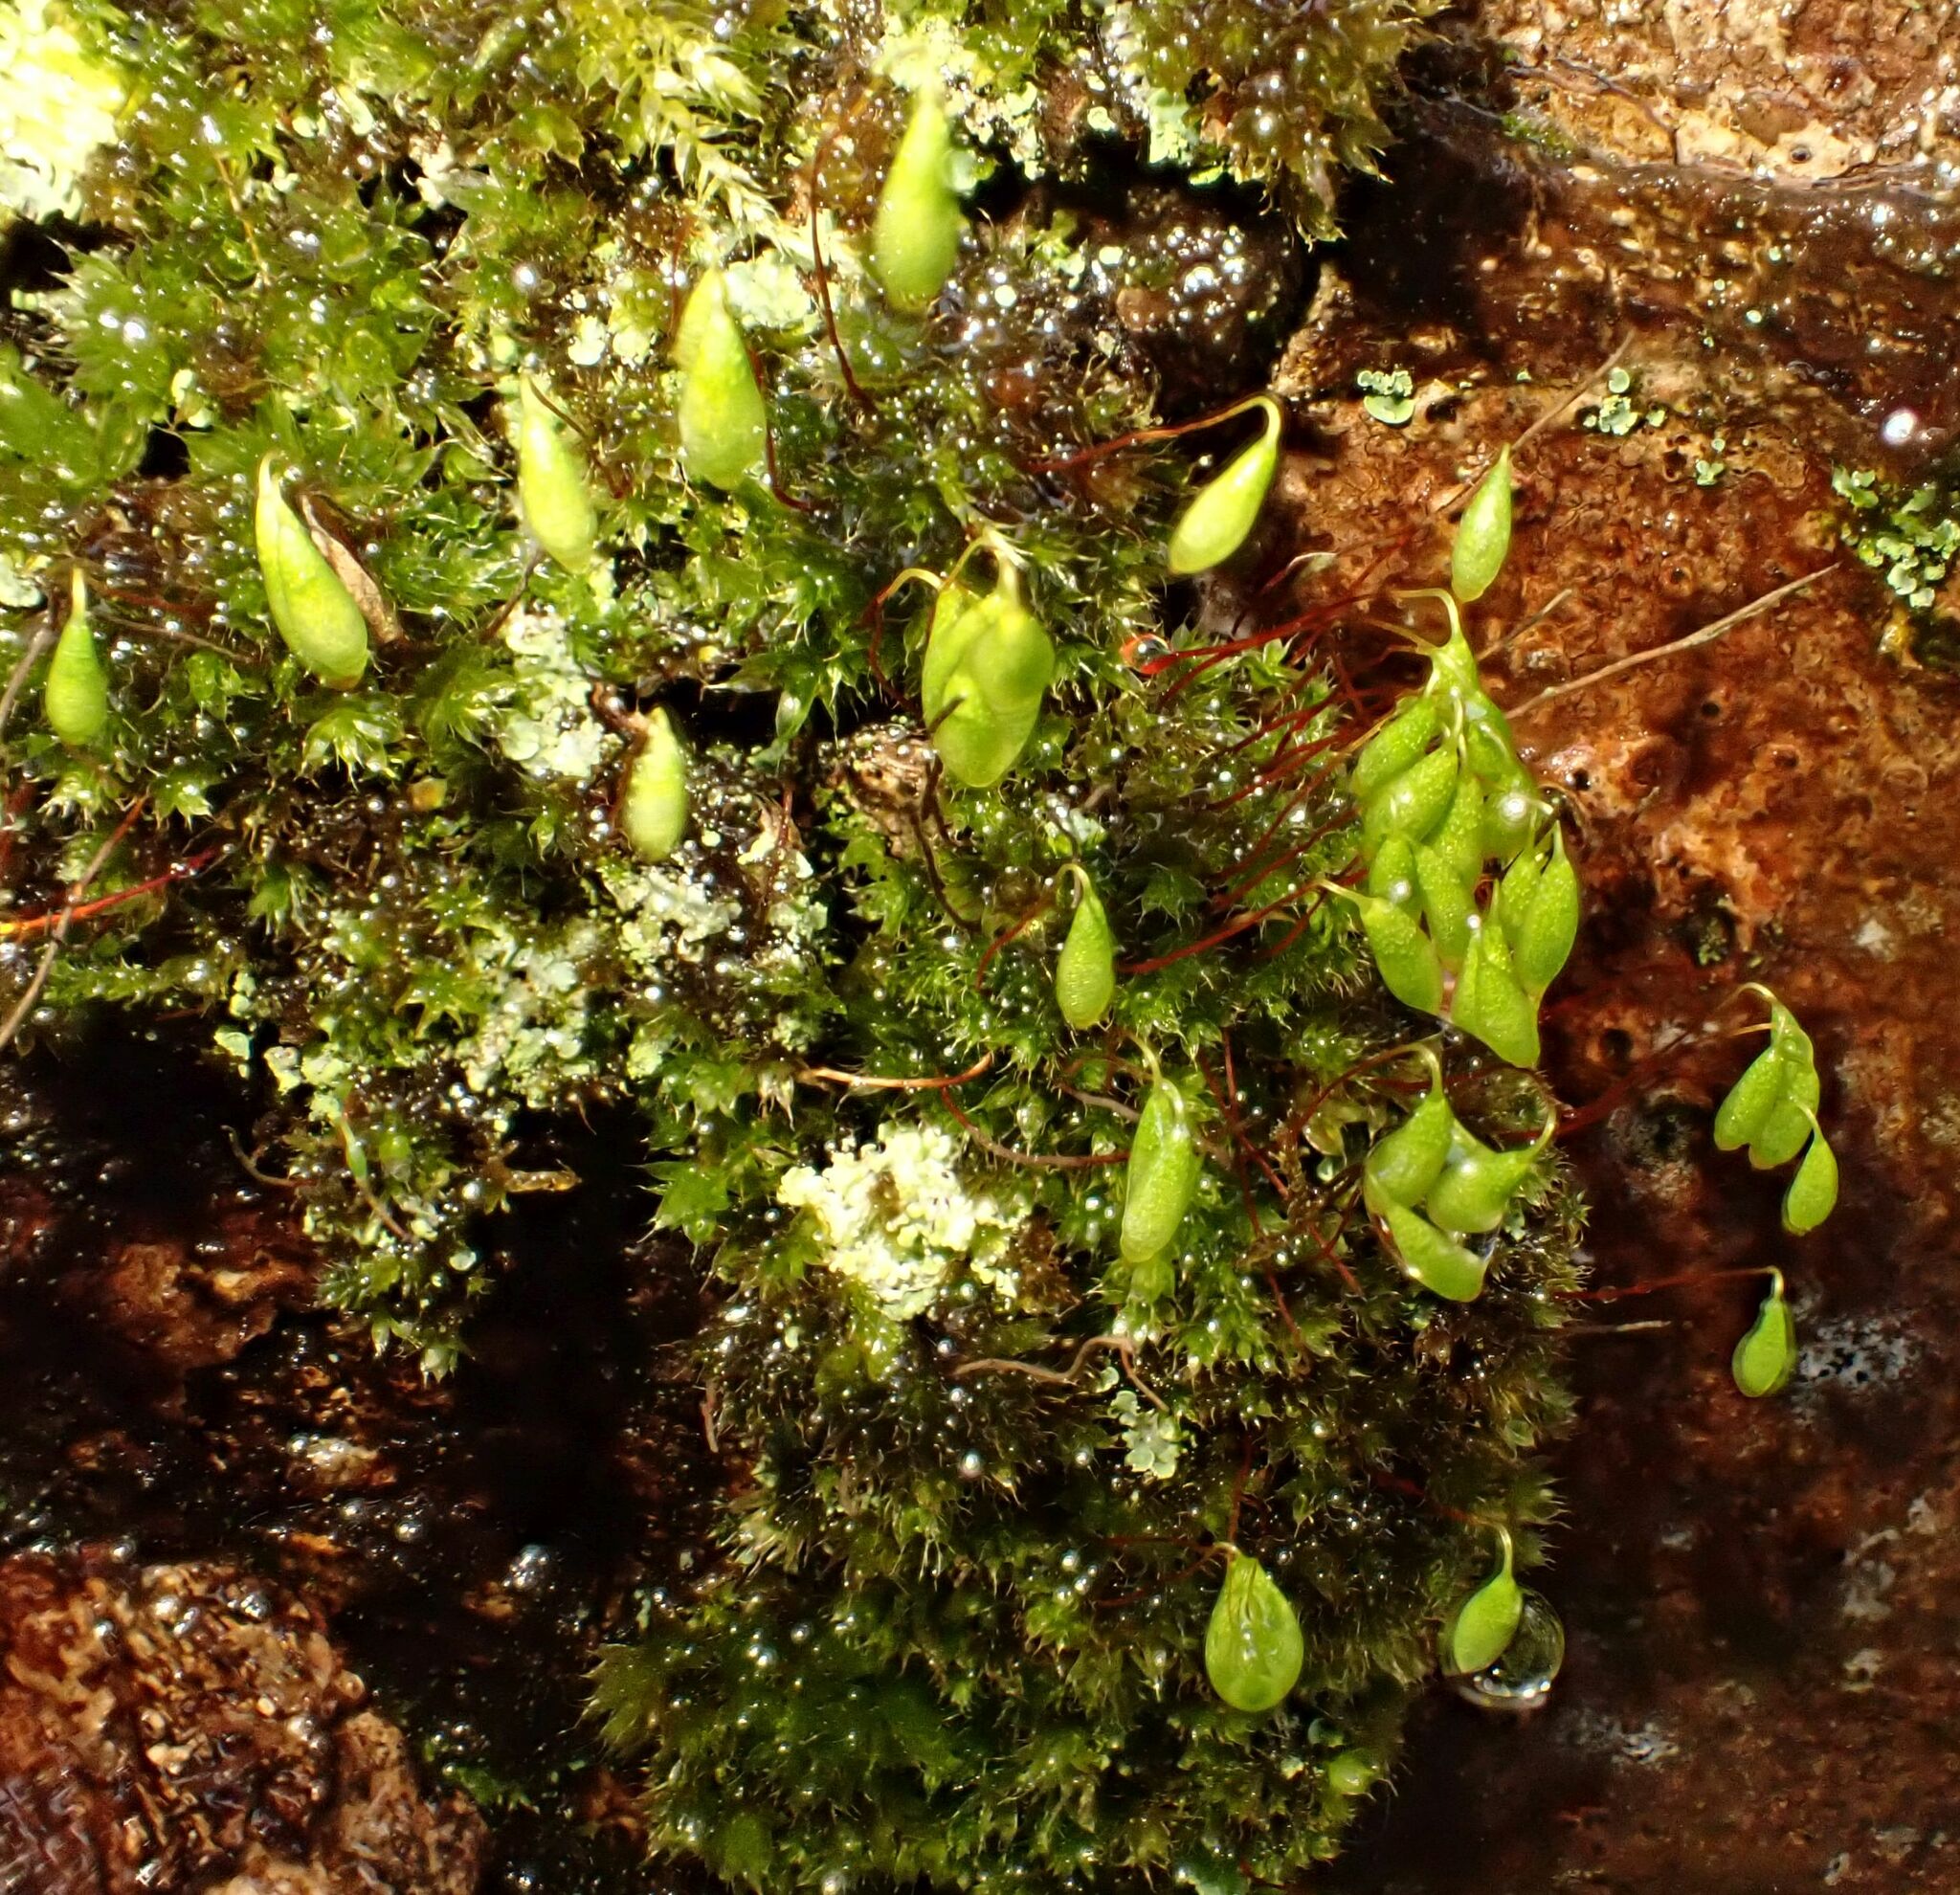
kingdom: Plantae
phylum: Bryophyta
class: Bryopsida
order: Bryales
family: Bryaceae
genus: Rosulabryum
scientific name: Rosulabryum capillare
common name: Capillary thread-moss
